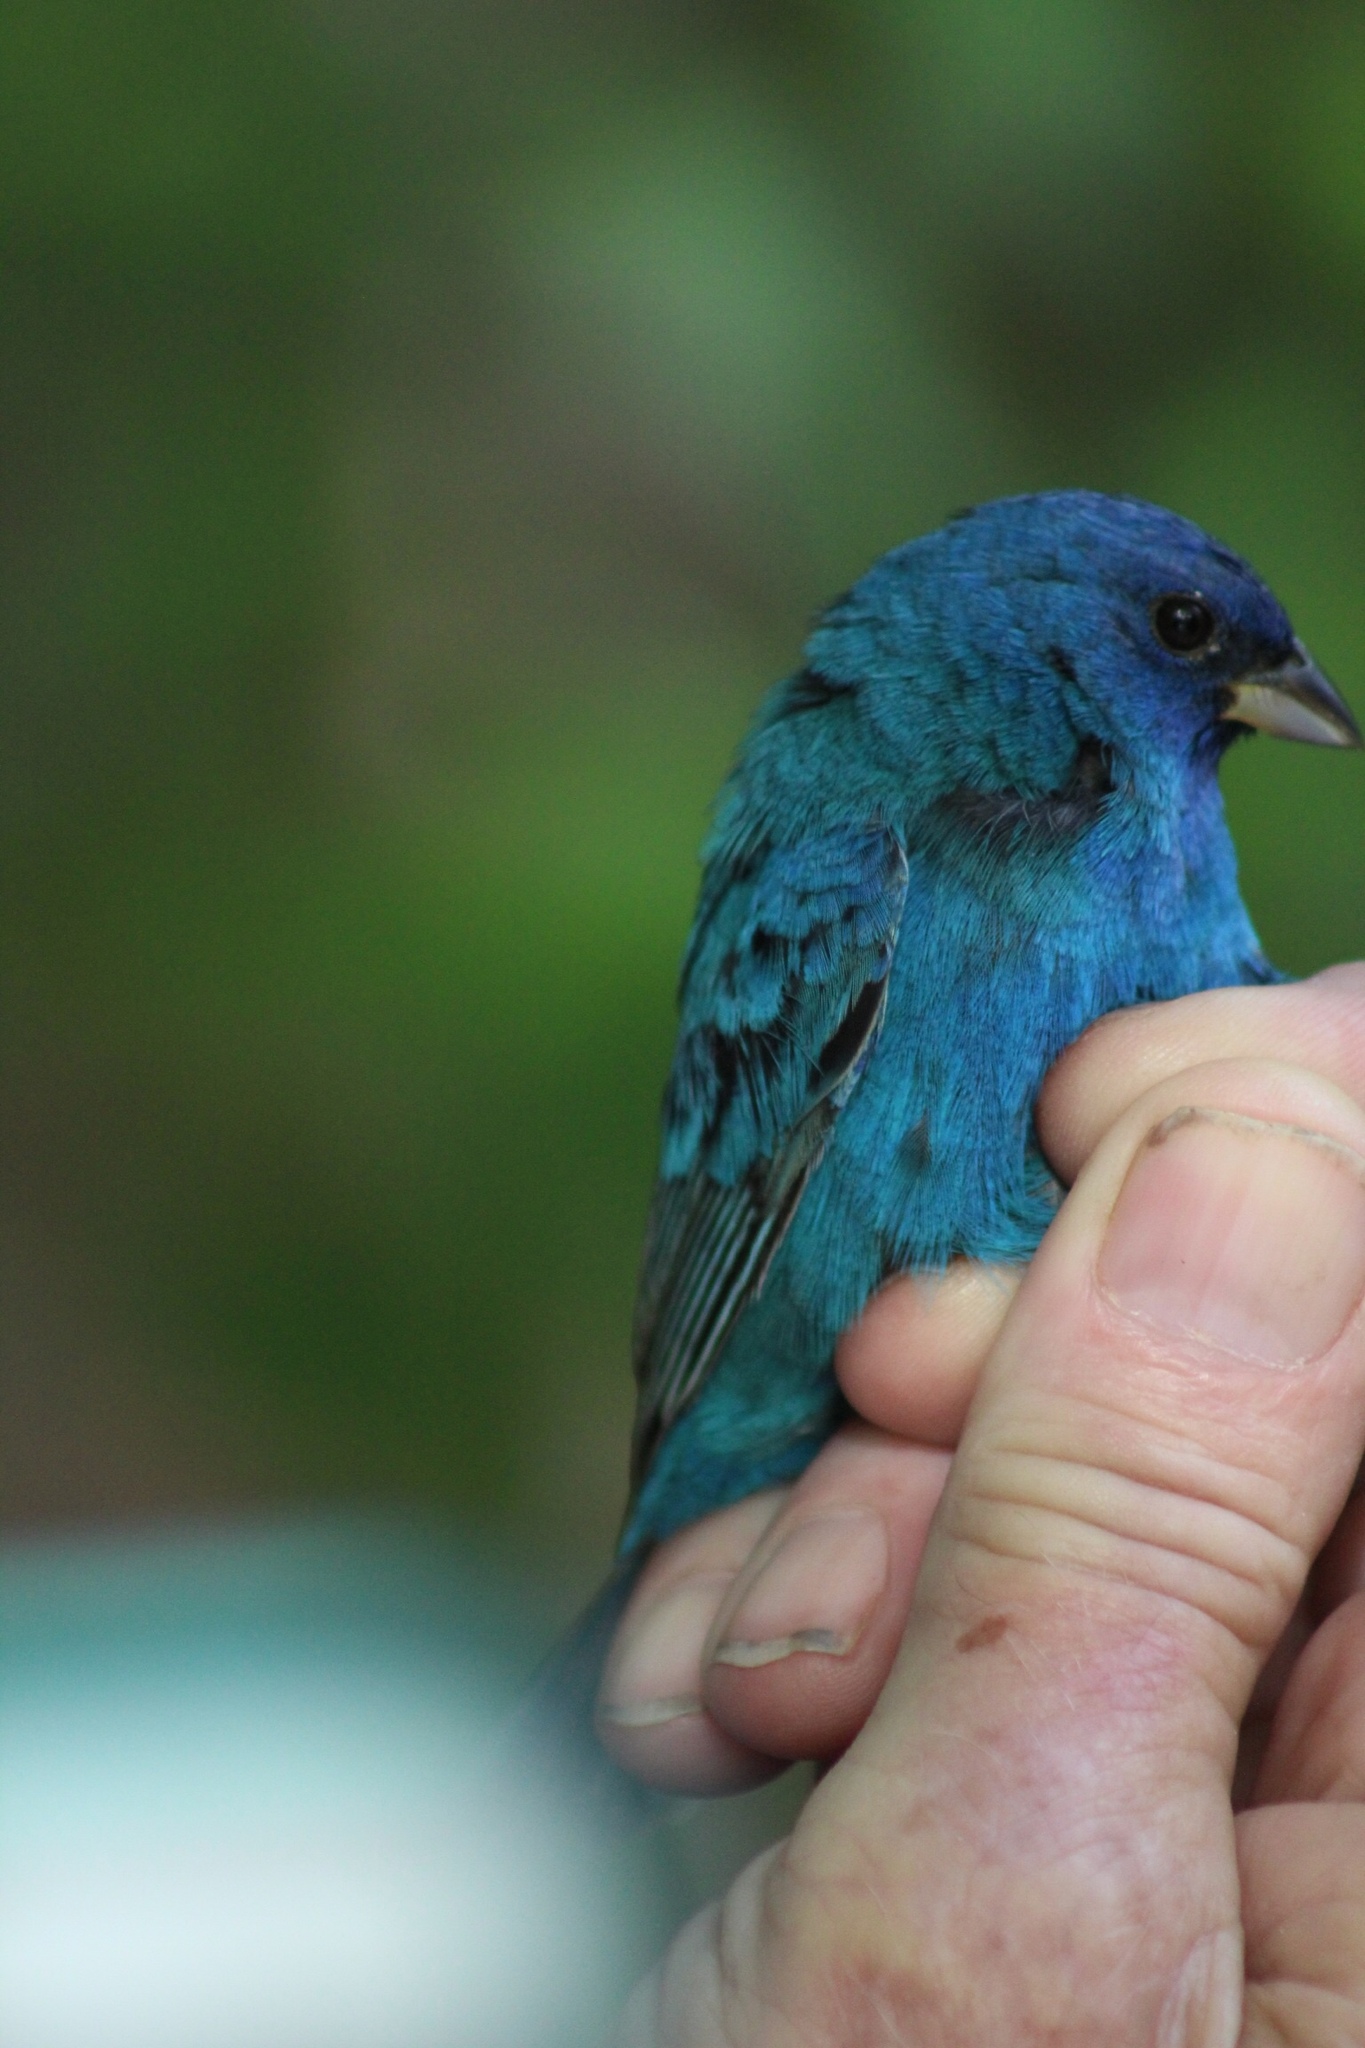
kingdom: Animalia
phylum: Chordata
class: Aves
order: Passeriformes
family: Cardinalidae
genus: Passerina
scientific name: Passerina cyanea
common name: Indigo bunting
